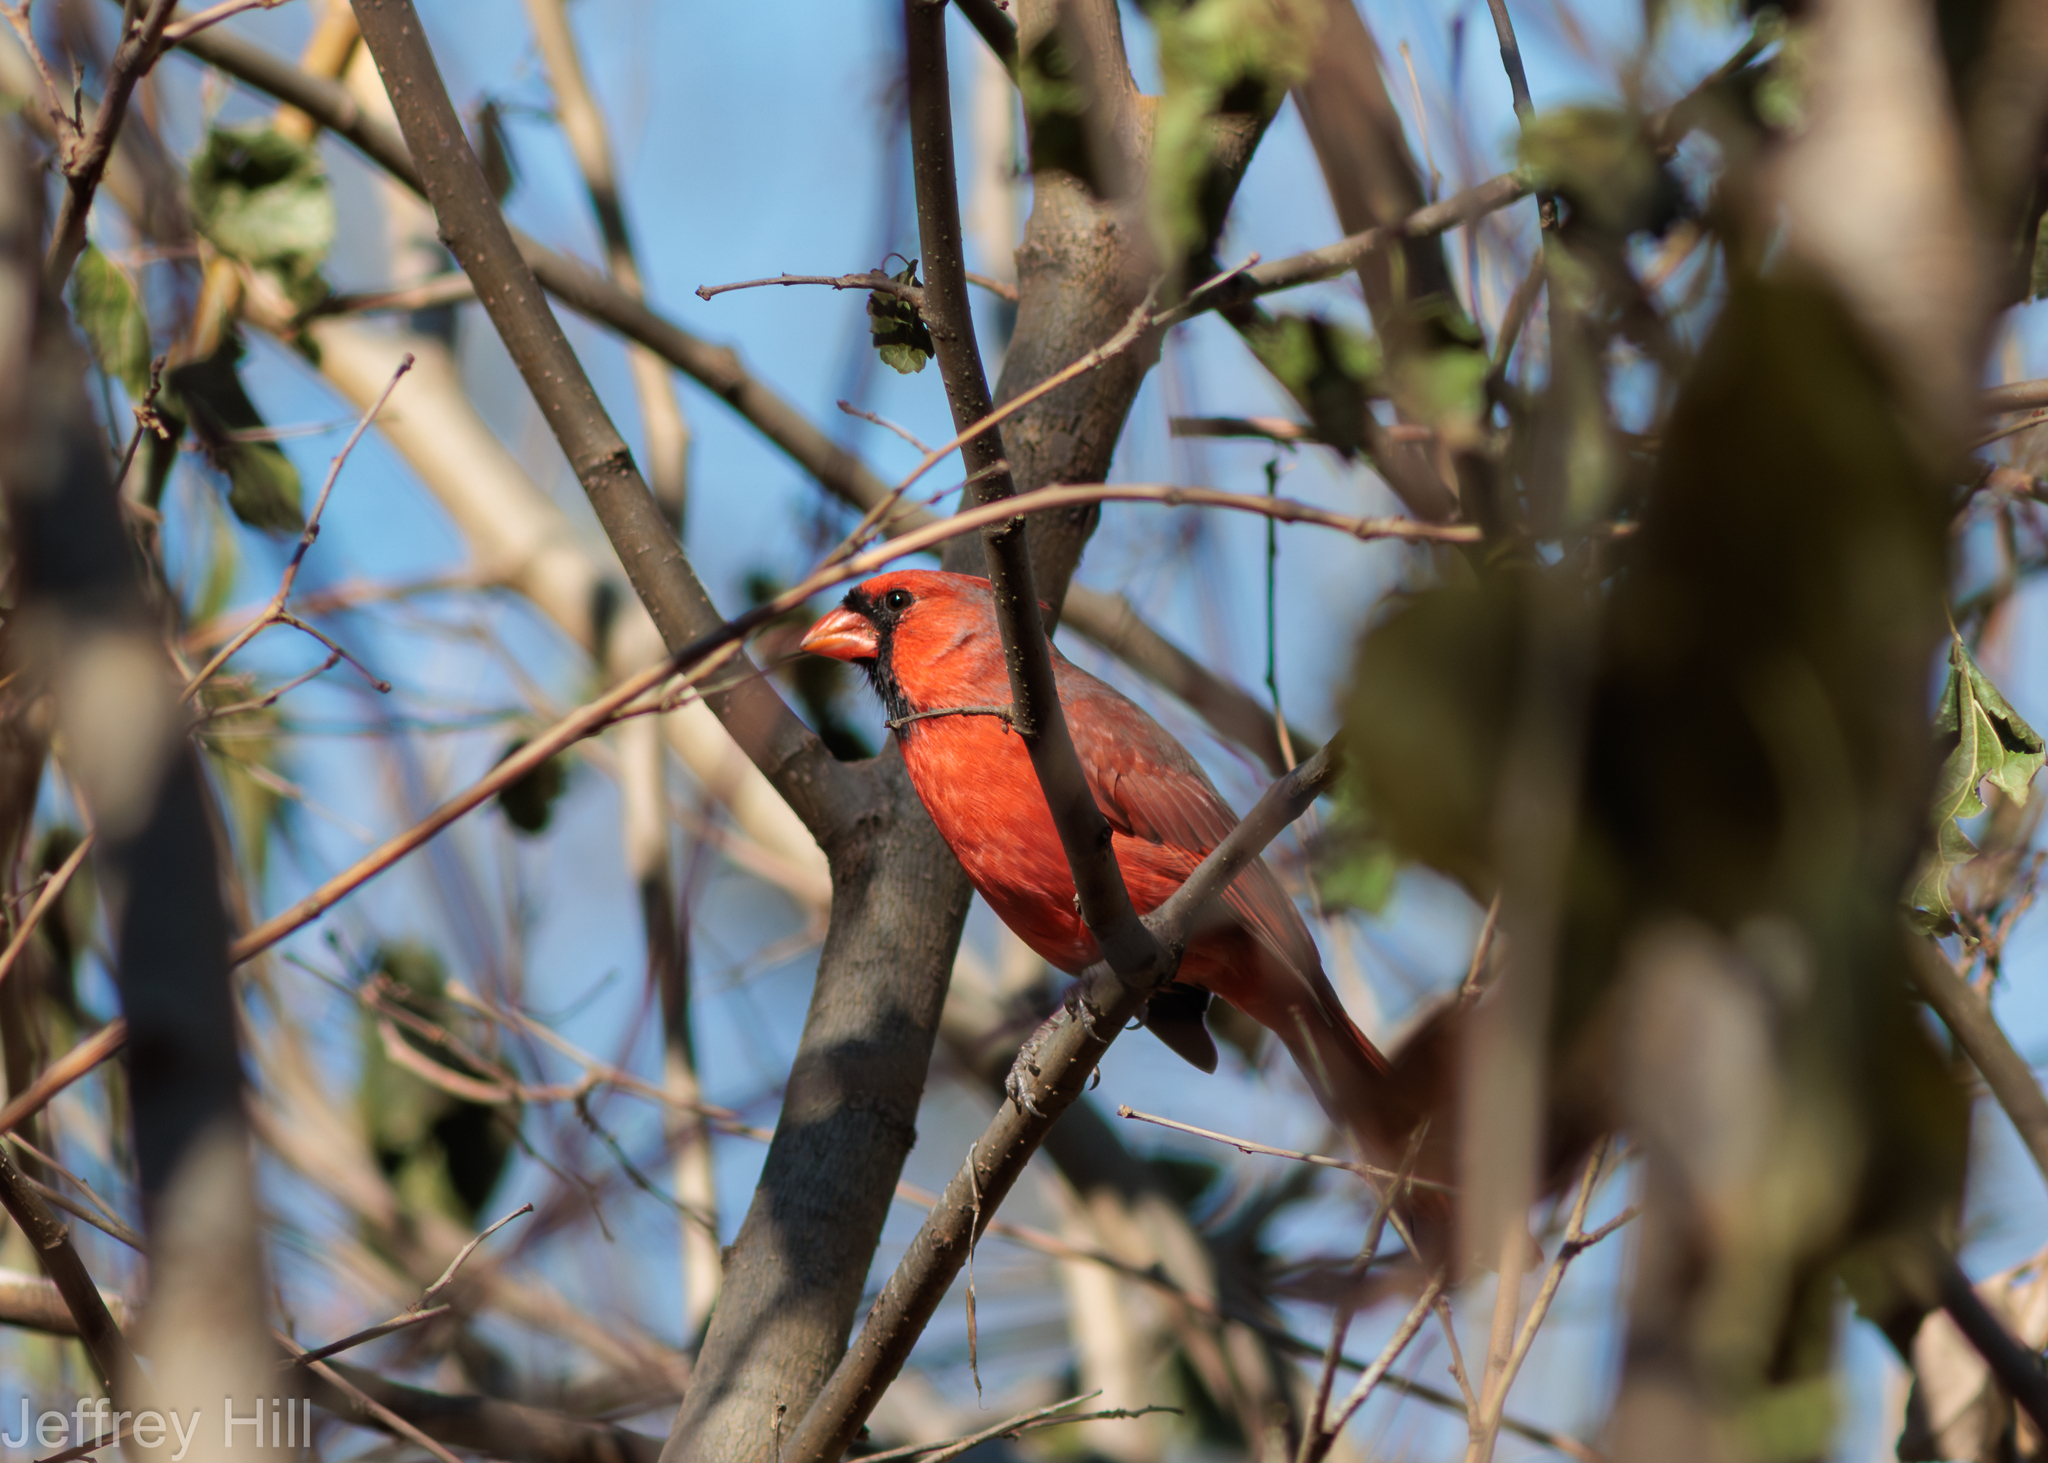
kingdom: Animalia
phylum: Chordata
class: Aves
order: Passeriformes
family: Cardinalidae
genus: Cardinalis
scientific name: Cardinalis cardinalis
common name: Northern cardinal
